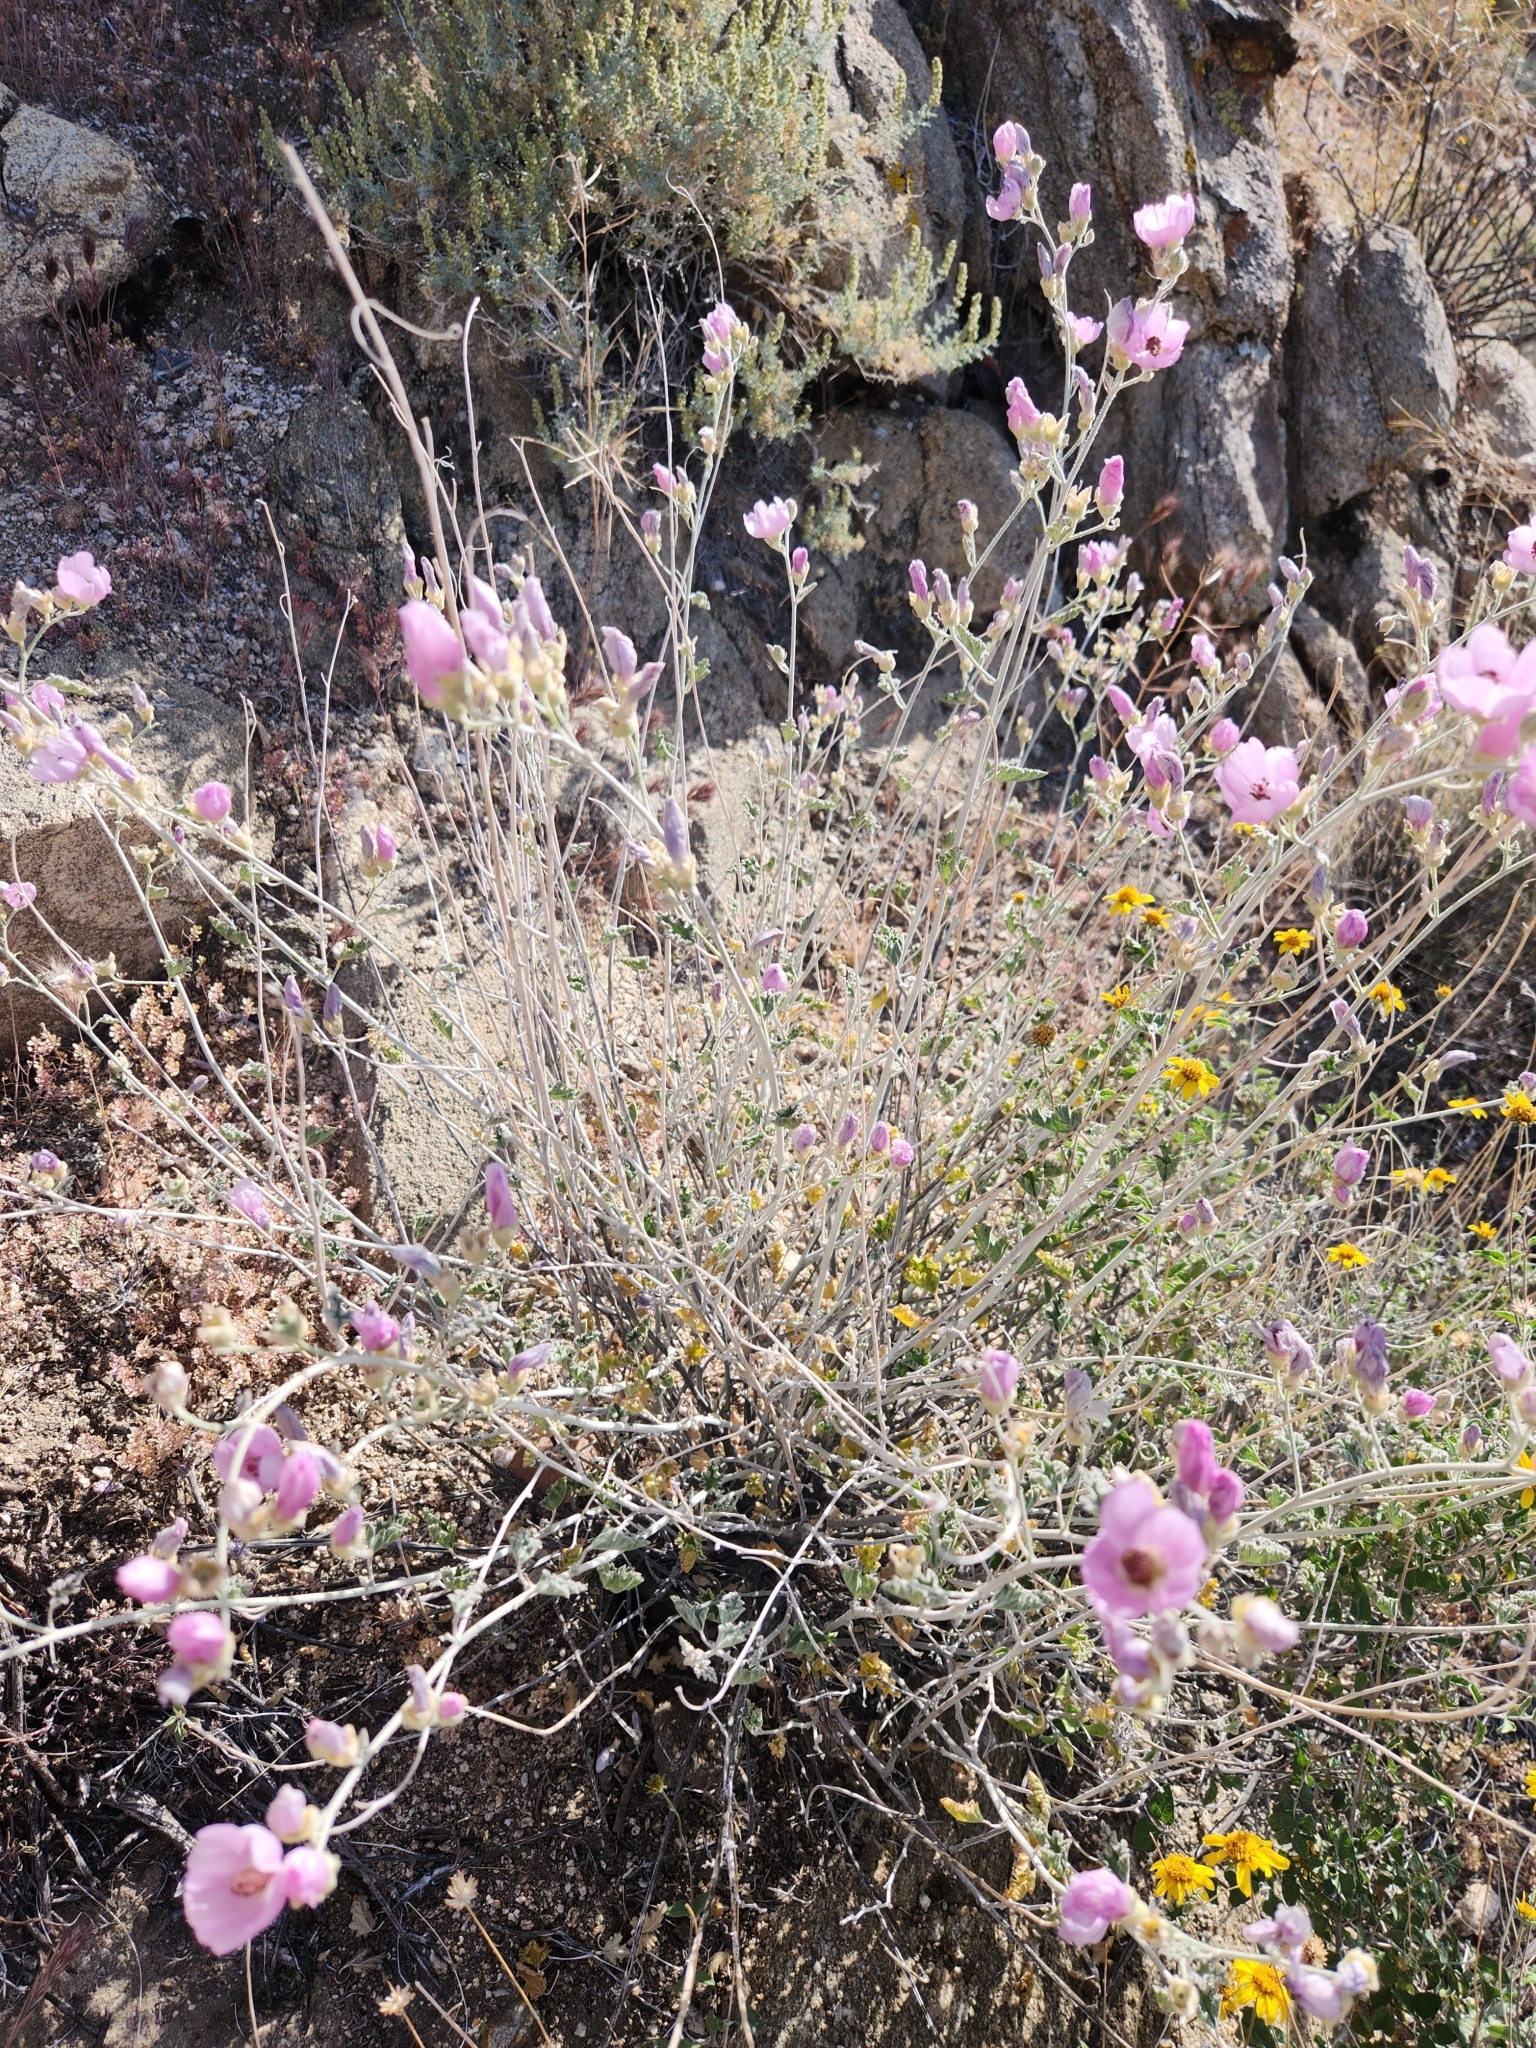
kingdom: Plantae
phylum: Tracheophyta
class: Magnoliopsida
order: Malvales
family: Malvaceae
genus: Sphaeralcea
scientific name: Sphaeralcea ambigua
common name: Apricot globe-mallow
